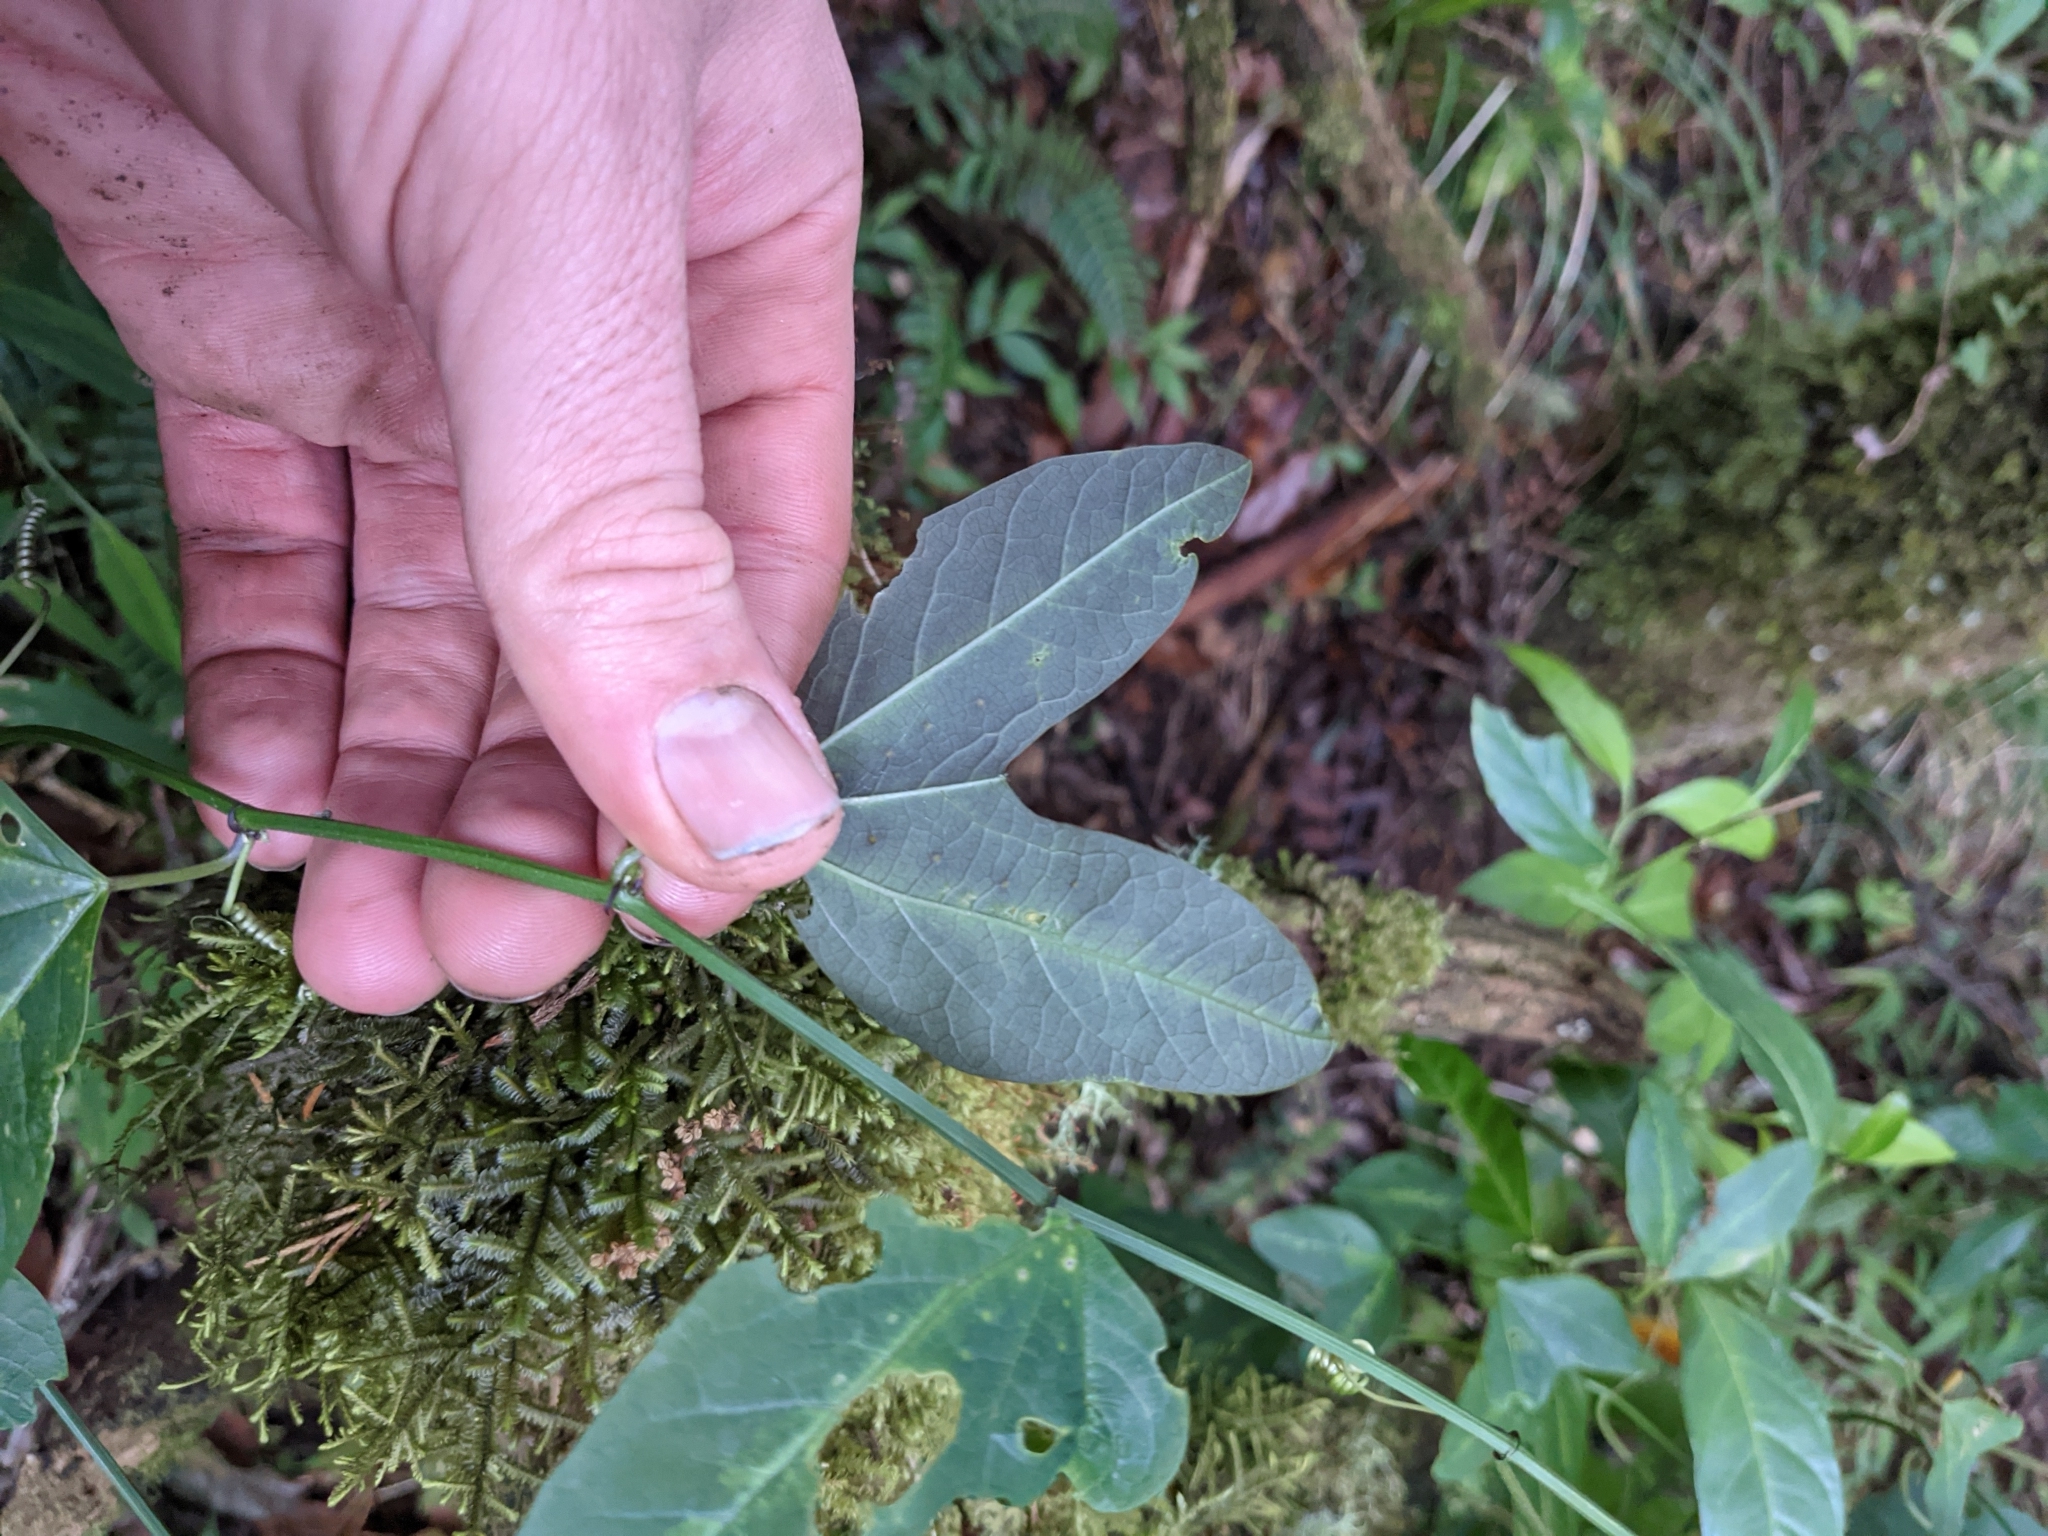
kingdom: Plantae
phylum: Tracheophyta
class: Magnoliopsida
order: Malpighiales
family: Passifloraceae
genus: Passiflora
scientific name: Passiflora apetala
